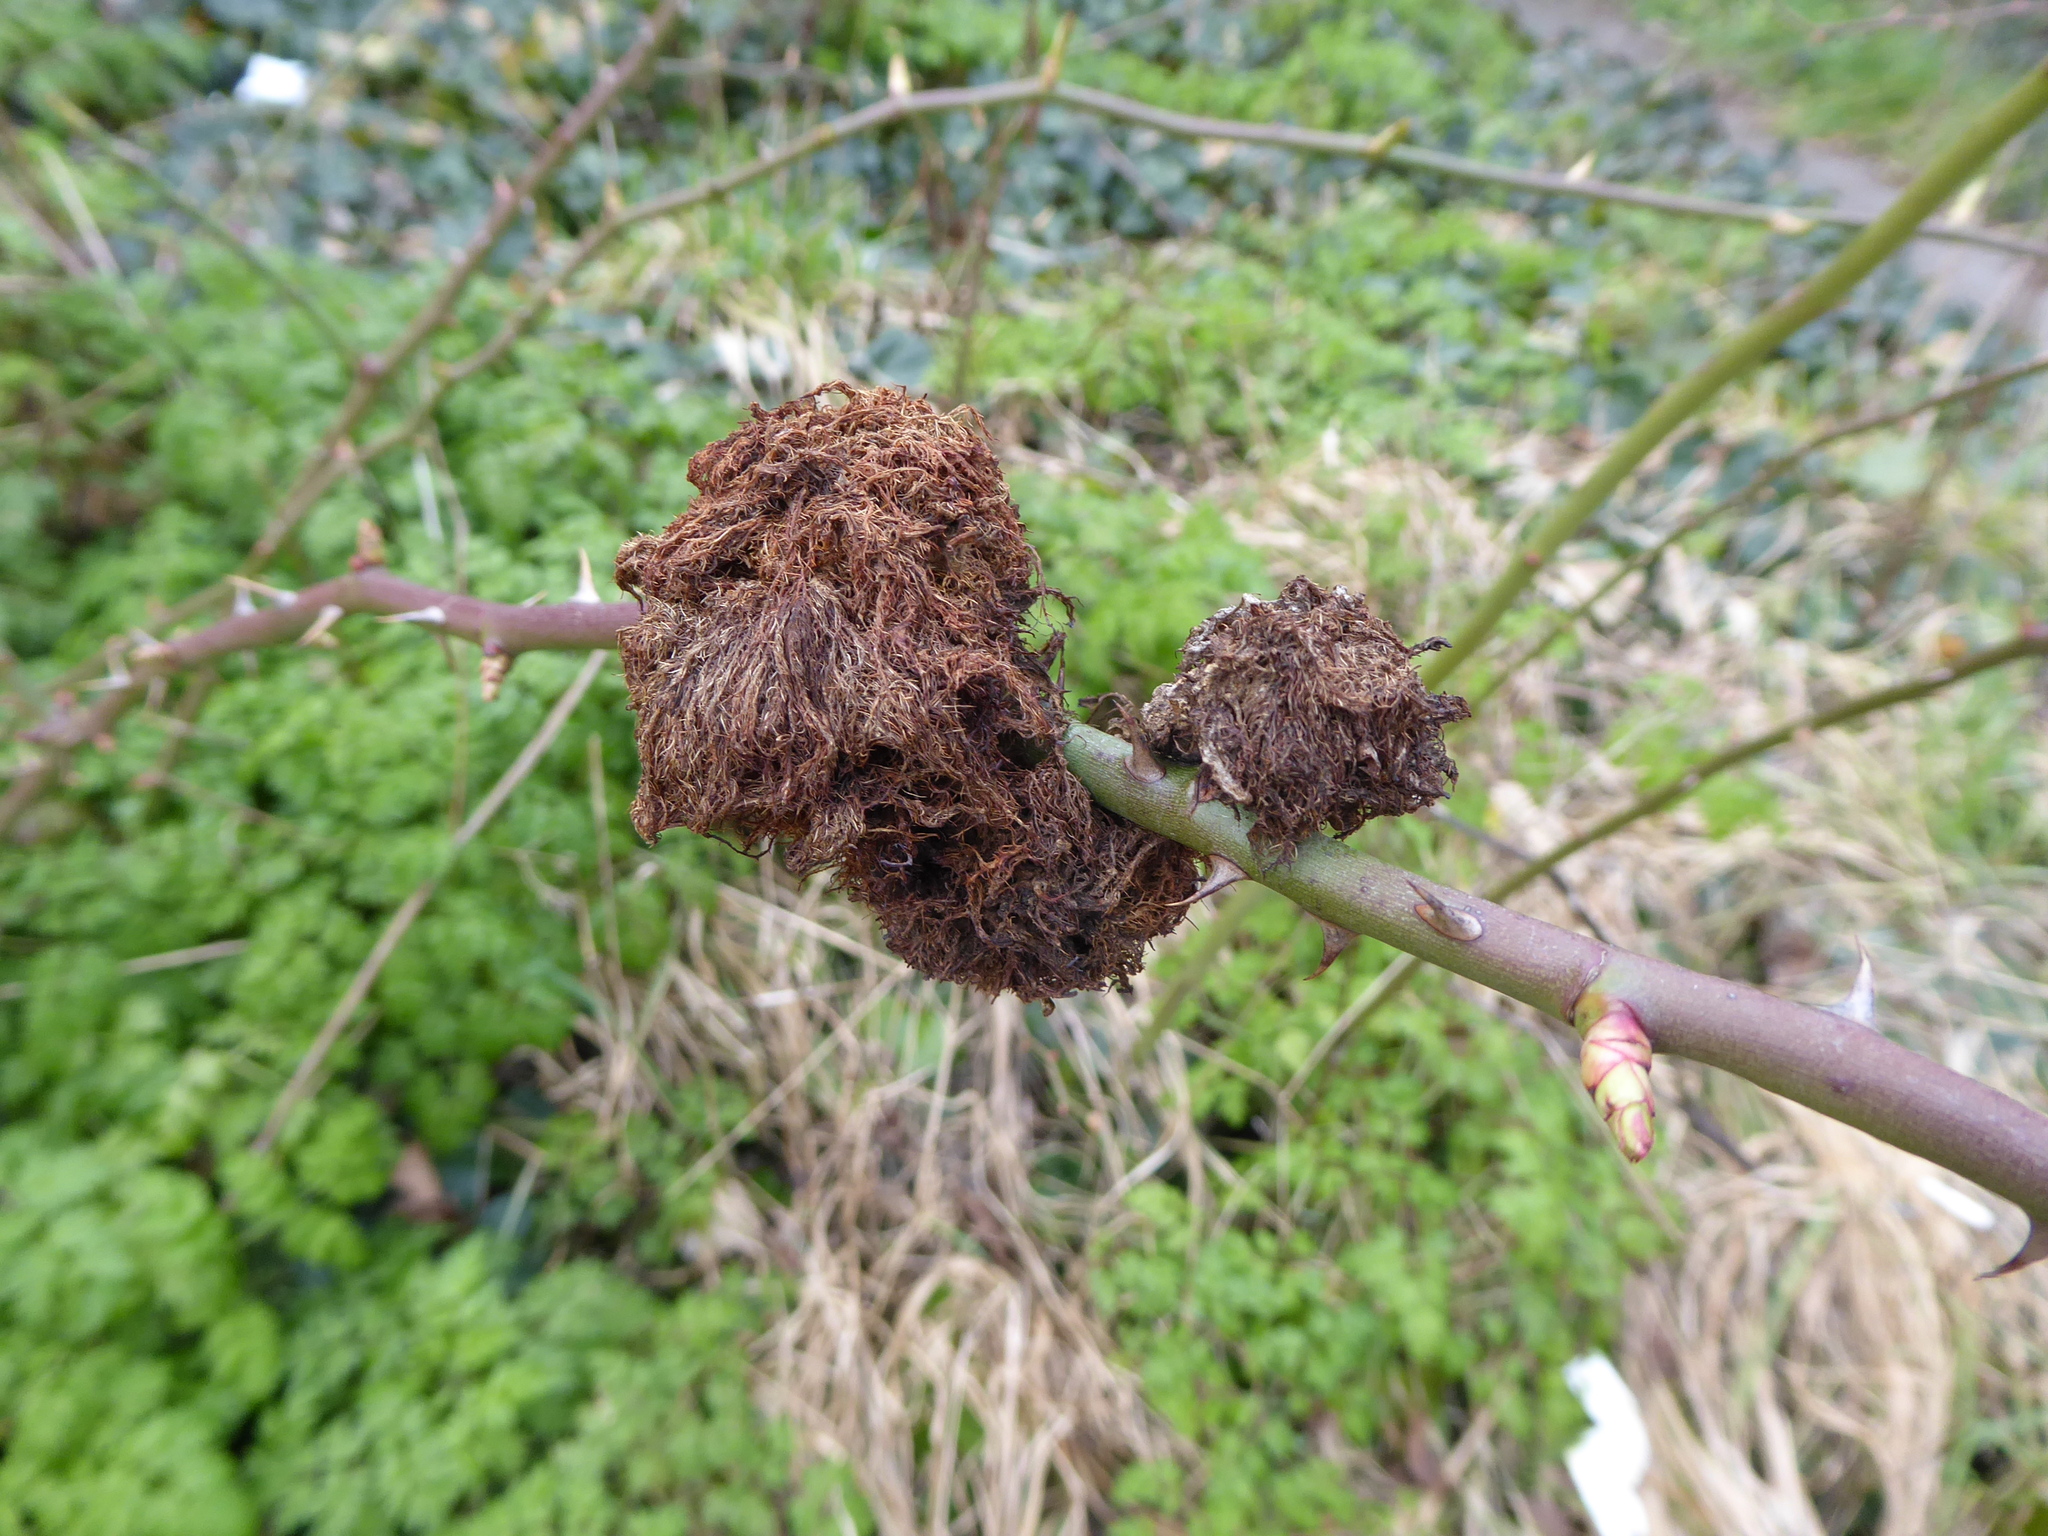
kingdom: Animalia
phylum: Arthropoda
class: Insecta
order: Hymenoptera
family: Cynipidae
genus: Diplolepis
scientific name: Diplolepis rosae
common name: Bedeguar gall
